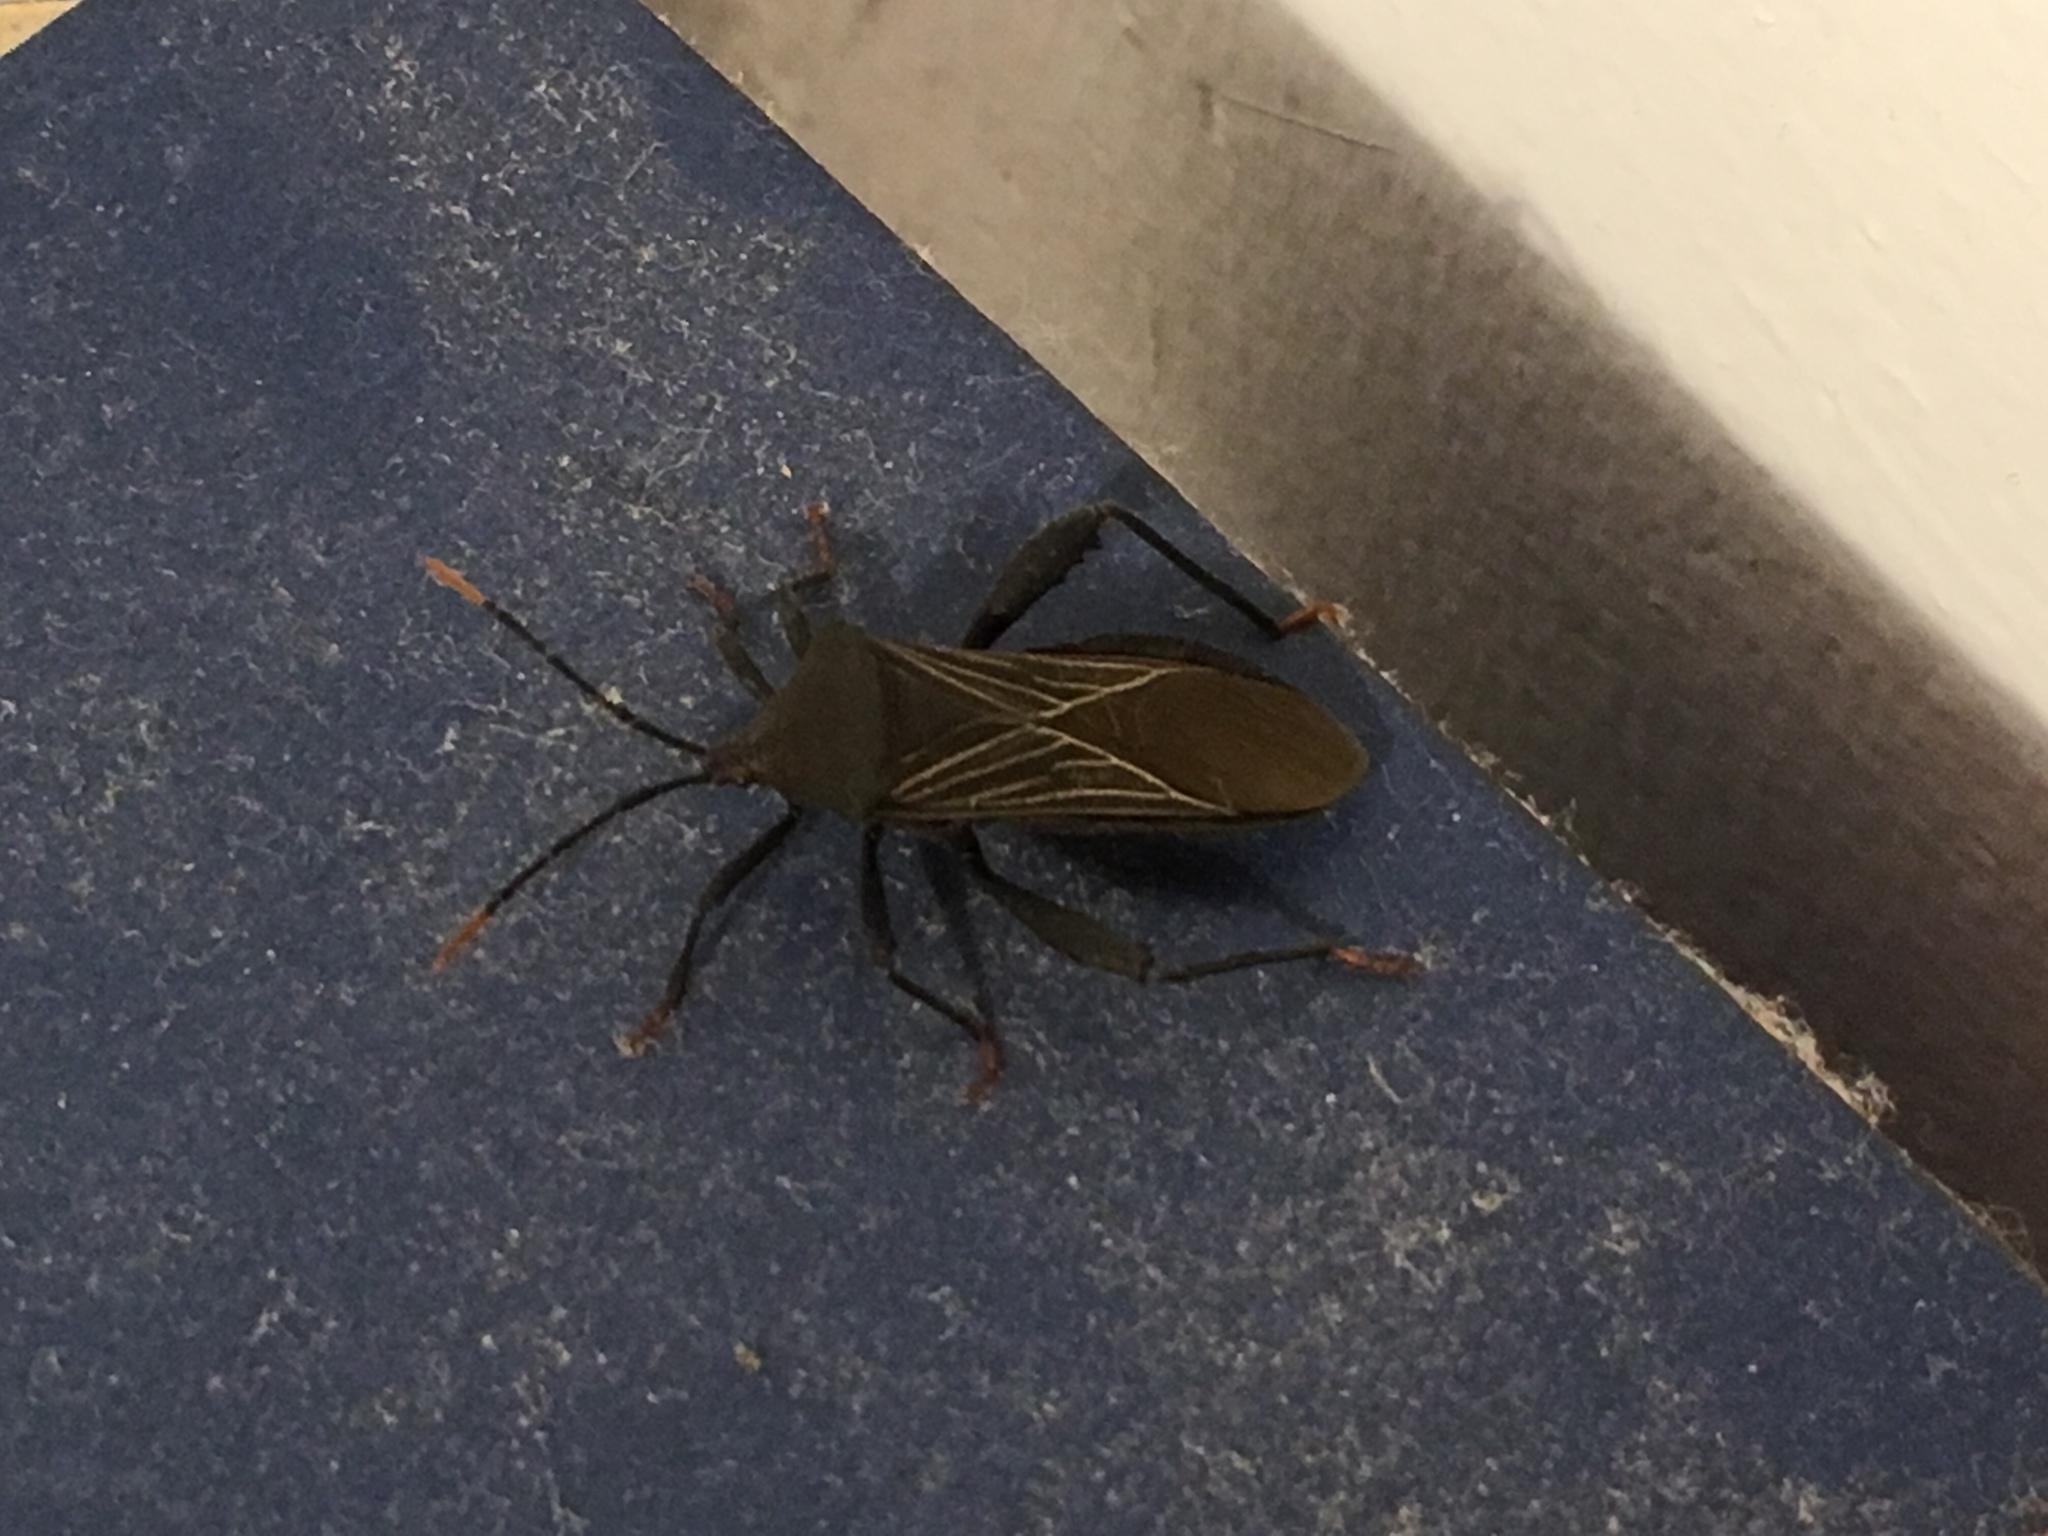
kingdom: Animalia
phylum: Arthropoda
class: Insecta
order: Hemiptera
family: Coreidae
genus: Piezogaster
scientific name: Piezogaster odiosus
